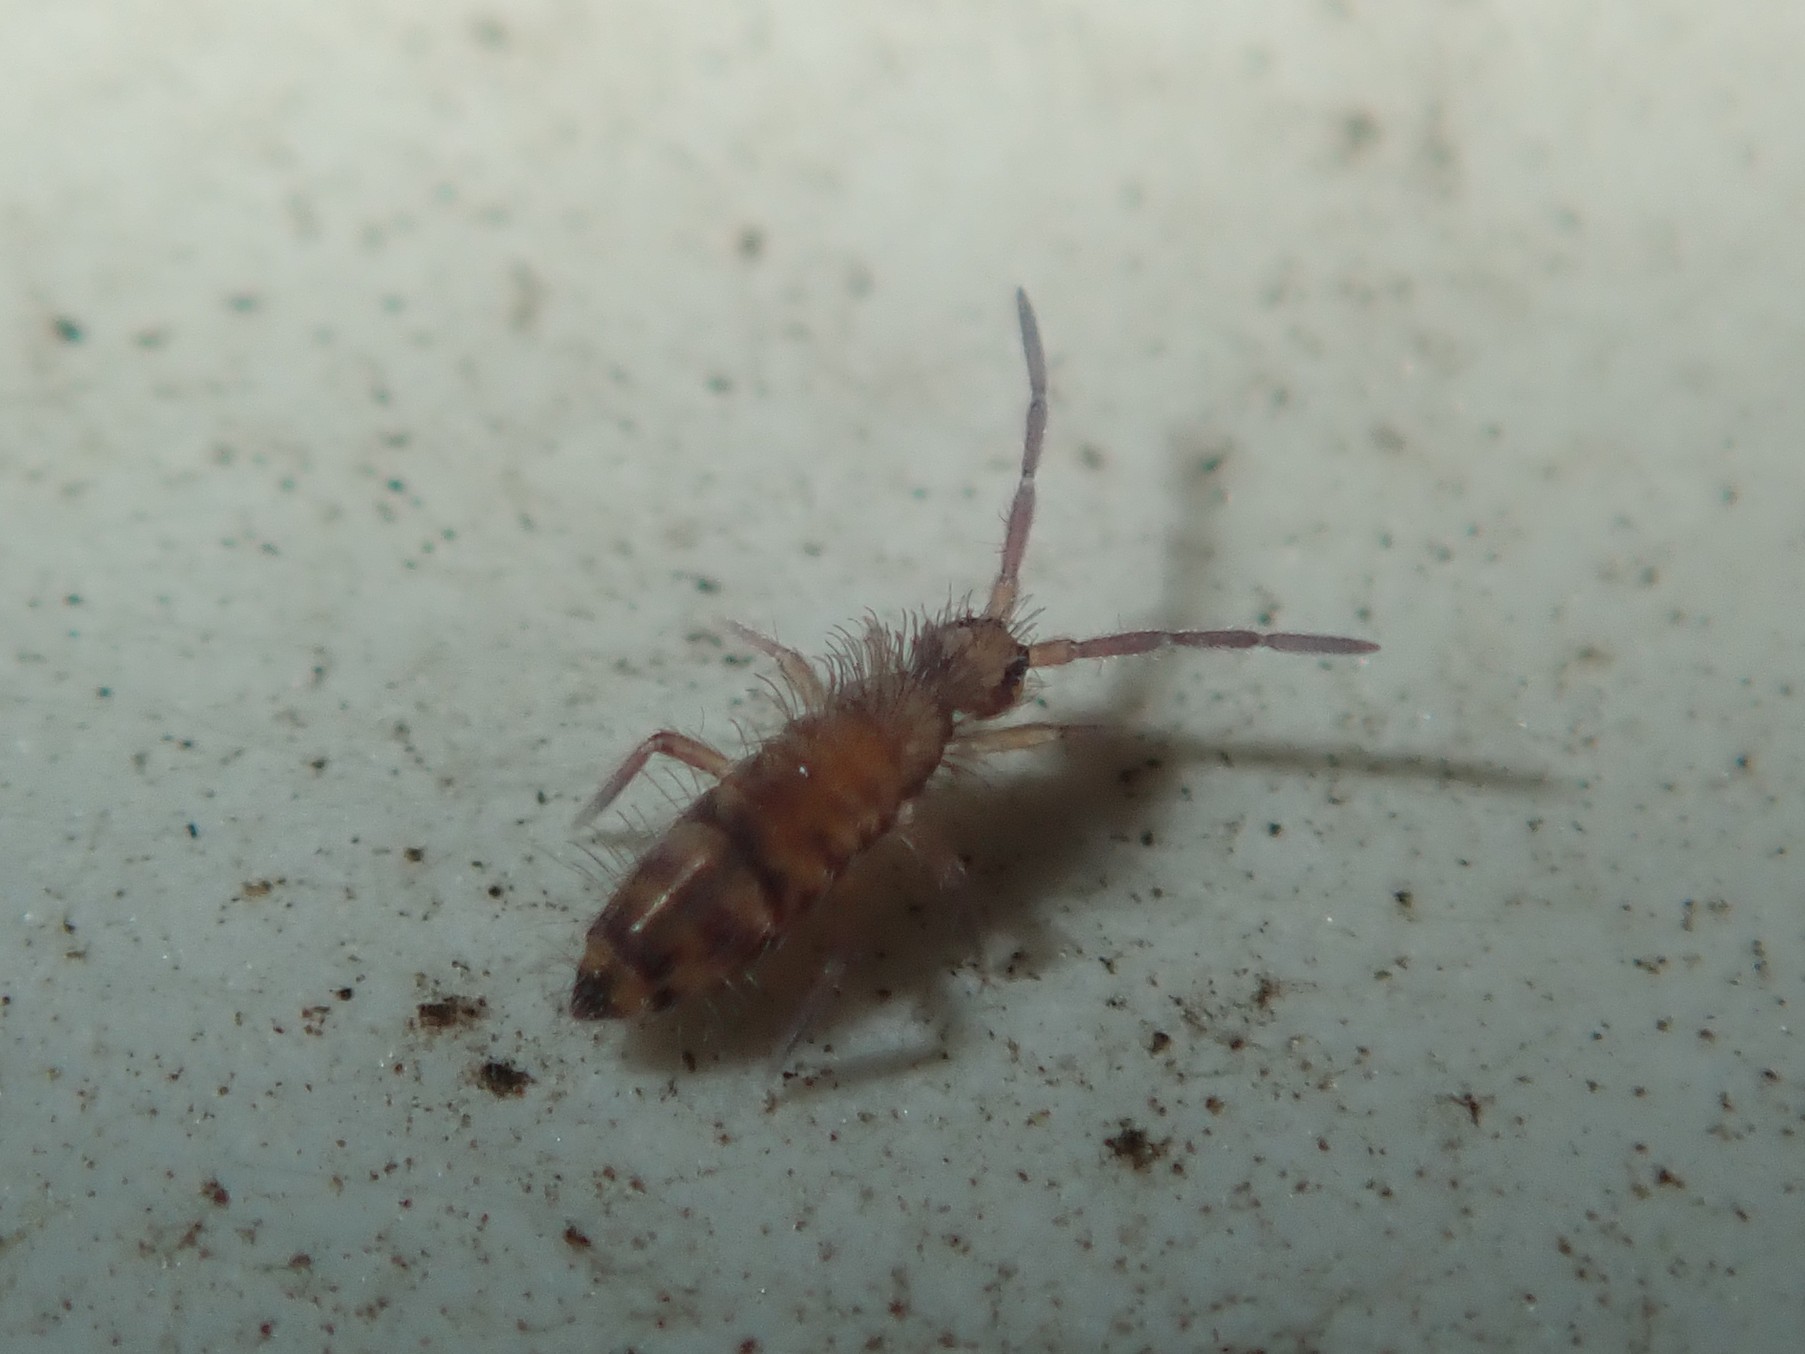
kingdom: Animalia
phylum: Arthropoda
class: Collembola
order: Entomobryomorpha
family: Entomobryidae
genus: Entomobrya
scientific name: Entomobrya multifasciata
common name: Springtail
